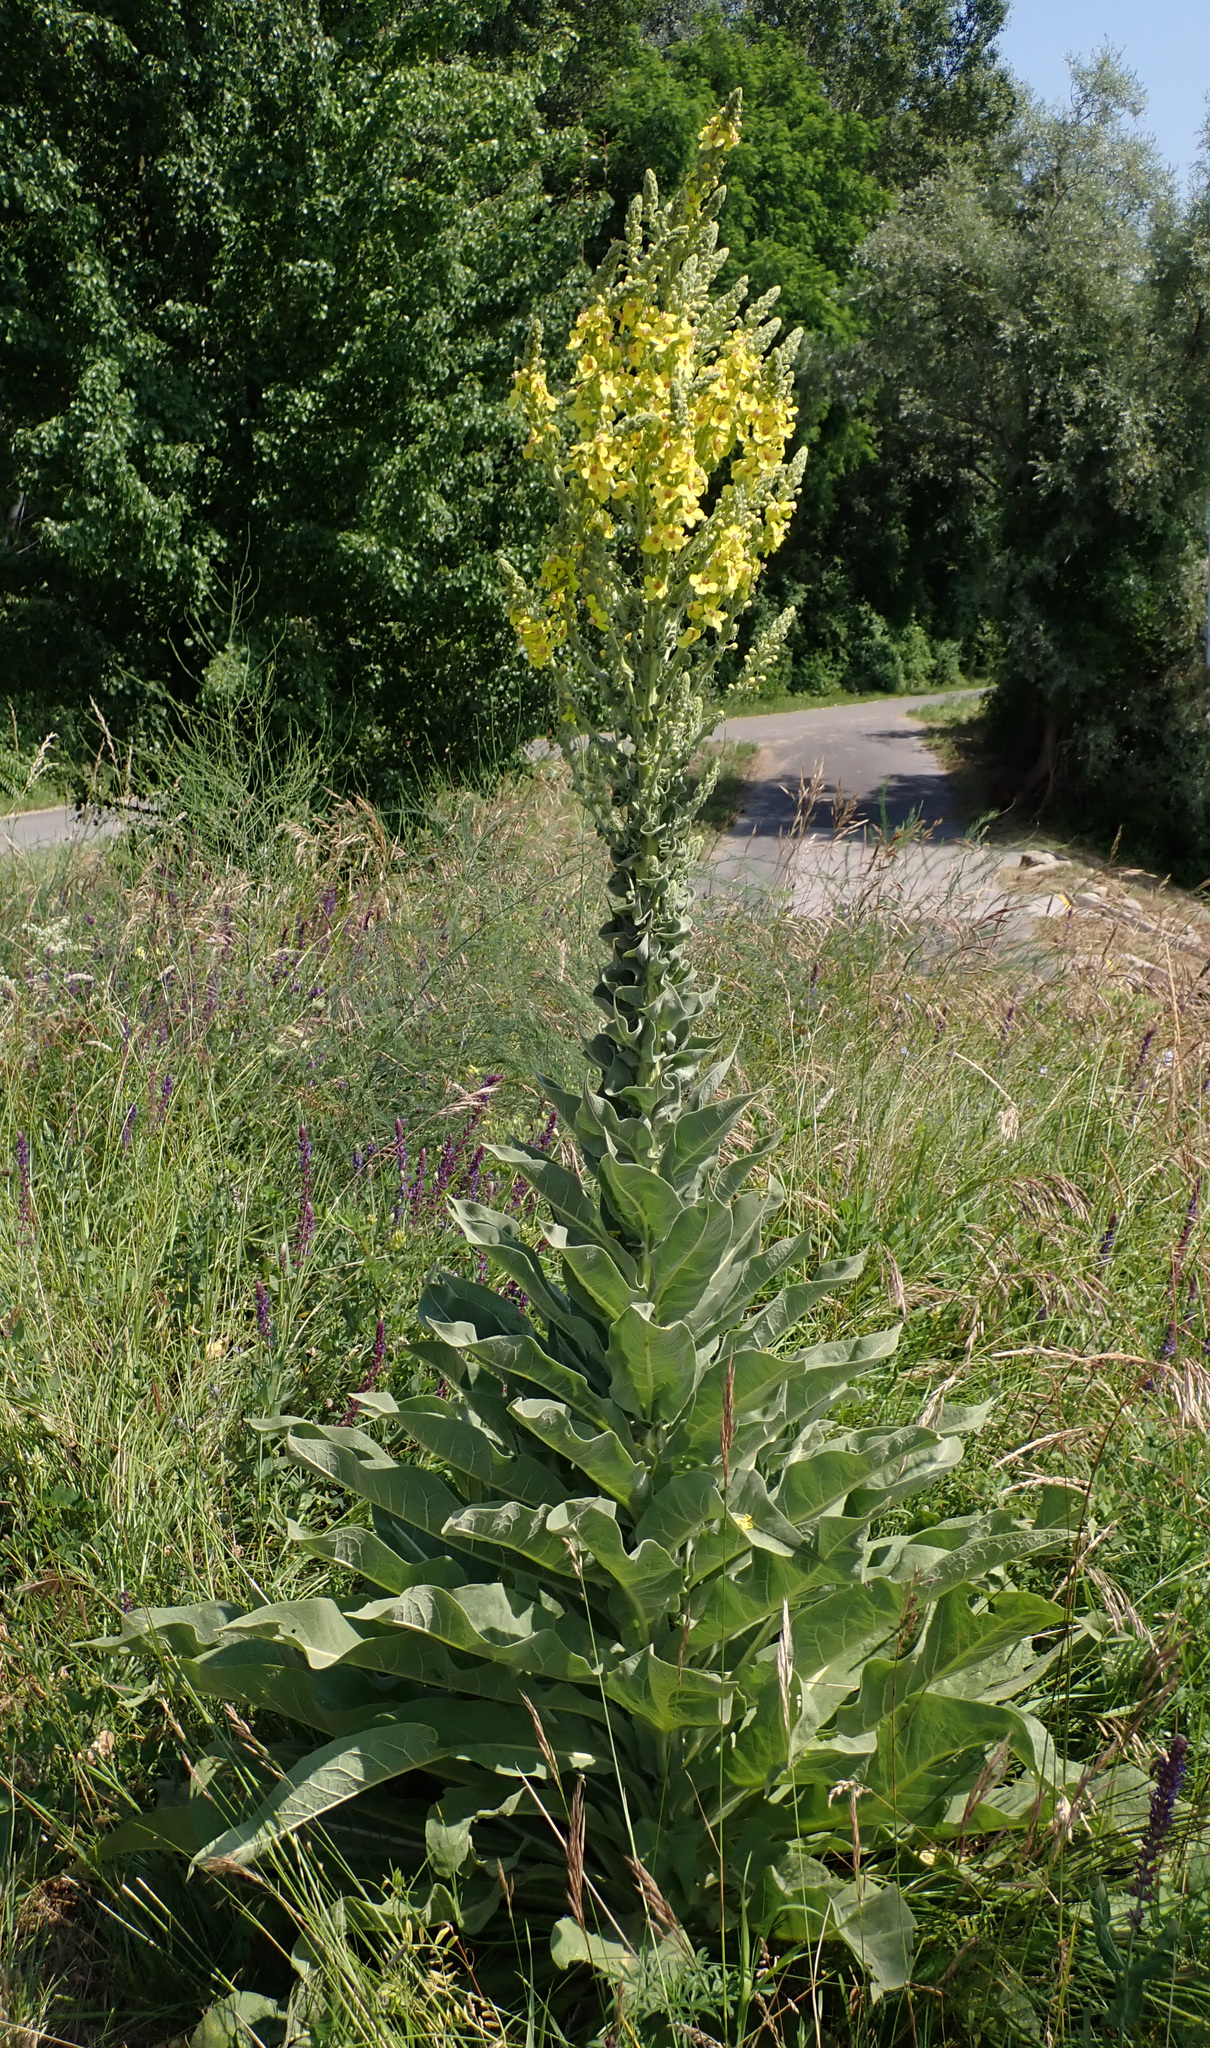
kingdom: Plantae
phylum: Tracheophyta
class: Magnoliopsida
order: Lamiales
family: Scrophulariaceae
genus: Verbascum
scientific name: Verbascum speciosum
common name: Hungarian mullein
